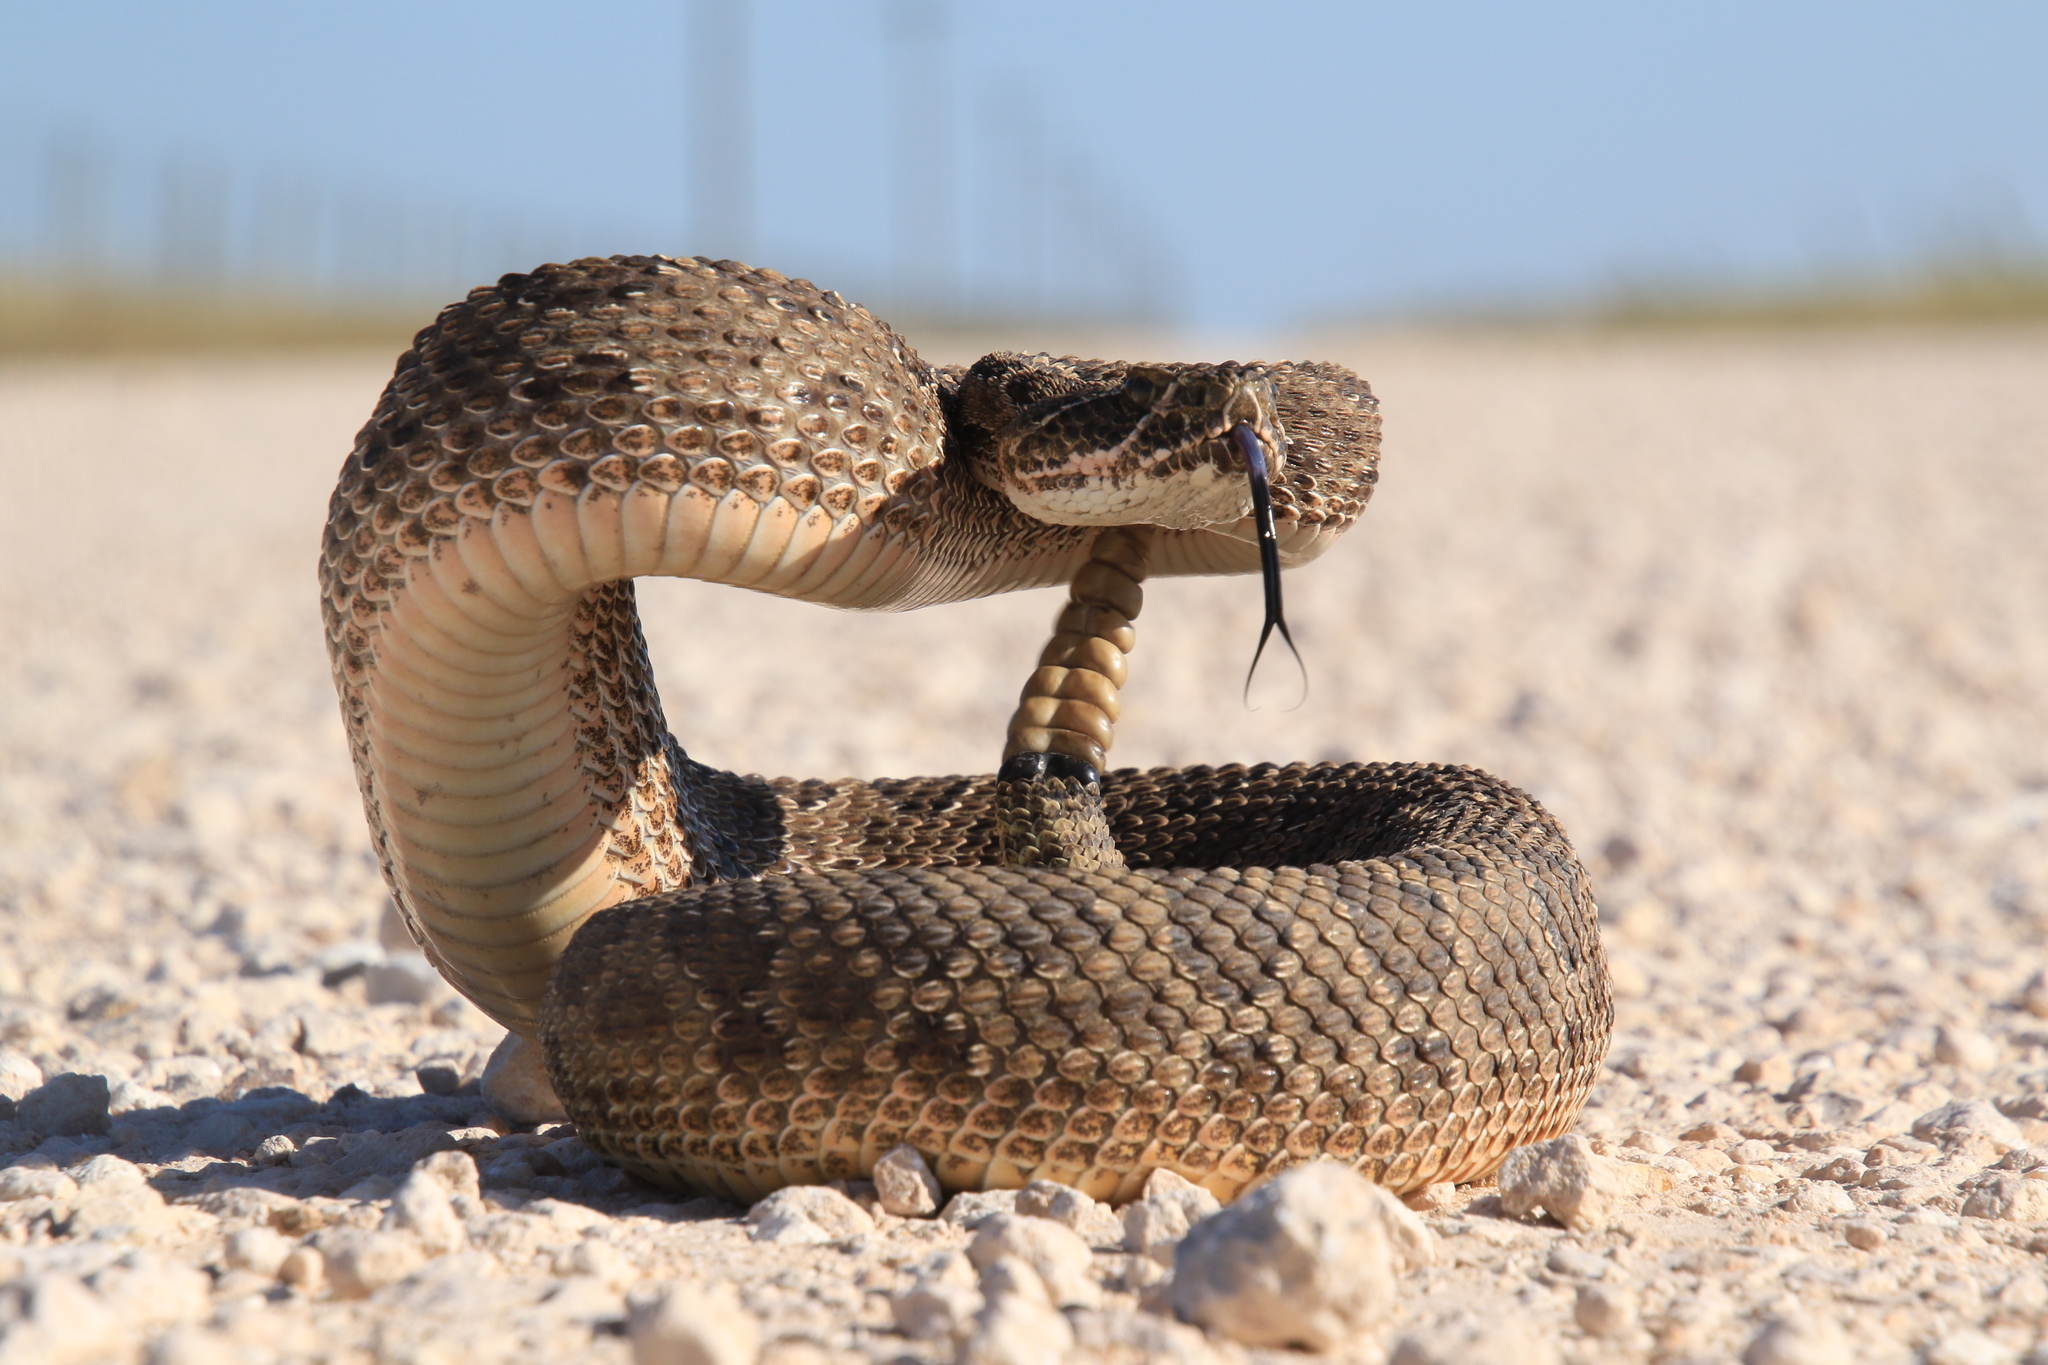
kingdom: Animalia
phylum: Chordata
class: Squamata
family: Viperidae
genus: Crotalus
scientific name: Crotalus viridis
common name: Prairie rattlesnake
